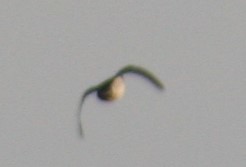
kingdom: Animalia
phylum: Chordata
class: Aves
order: Gaviiformes
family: Gaviidae
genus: Gavia
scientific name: Gavia immer
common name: Common loon
